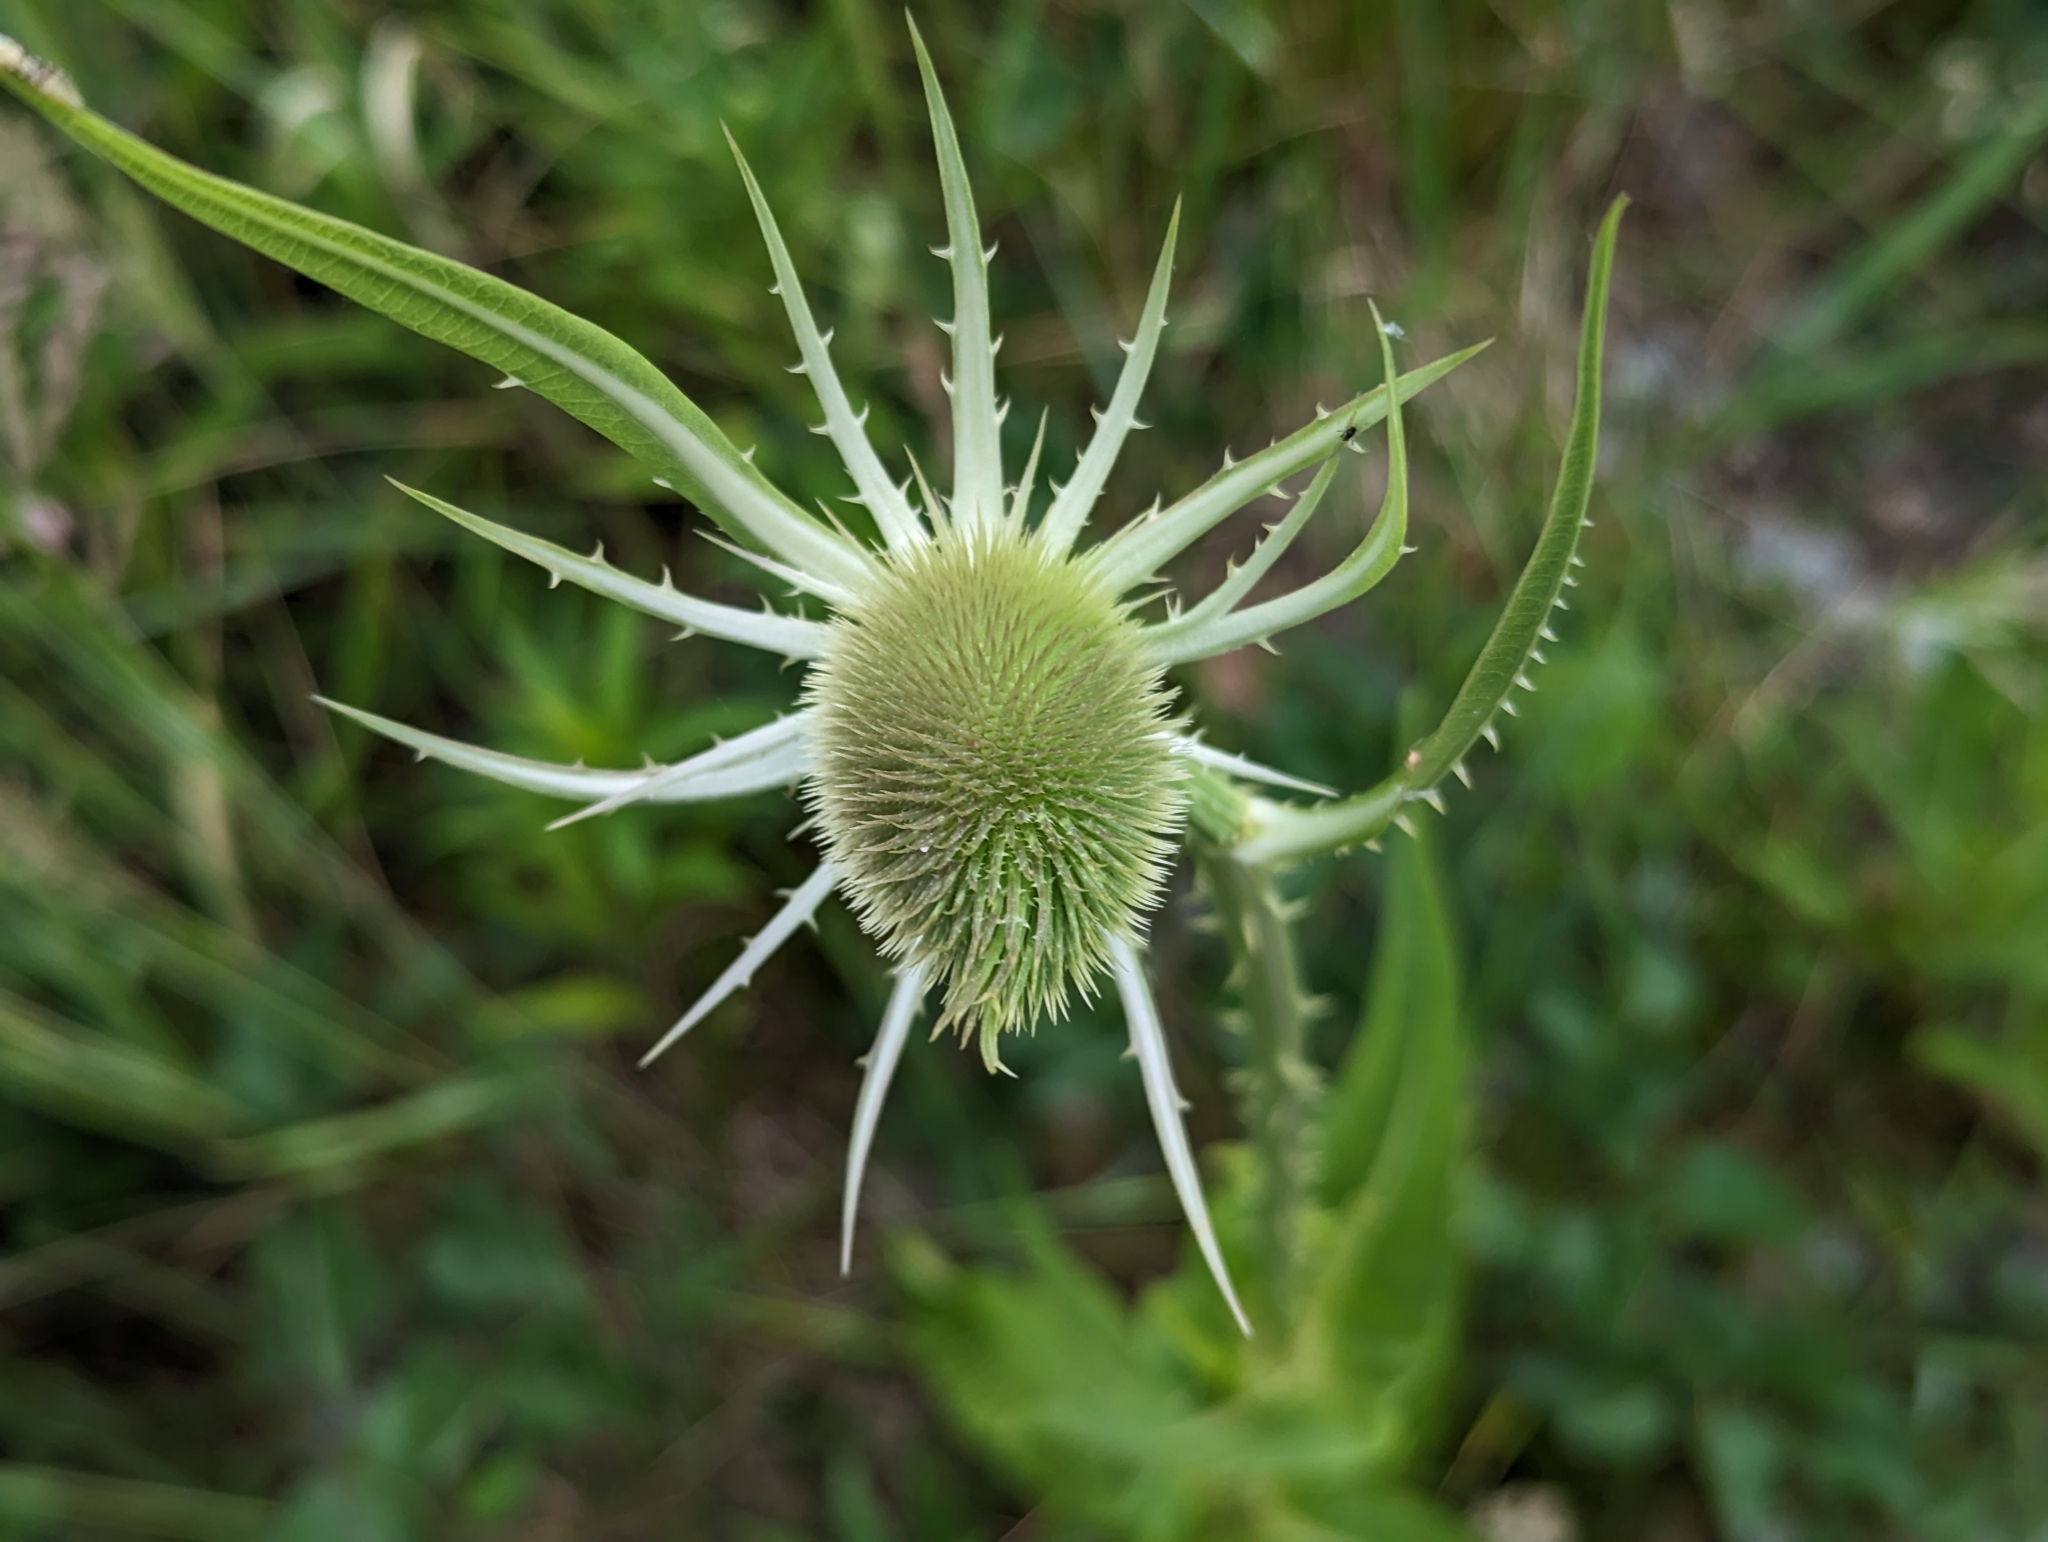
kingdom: Plantae
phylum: Tracheophyta
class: Magnoliopsida
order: Dipsacales
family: Caprifoliaceae
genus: Dipsacus
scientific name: Dipsacus fullonum
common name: Teasel
